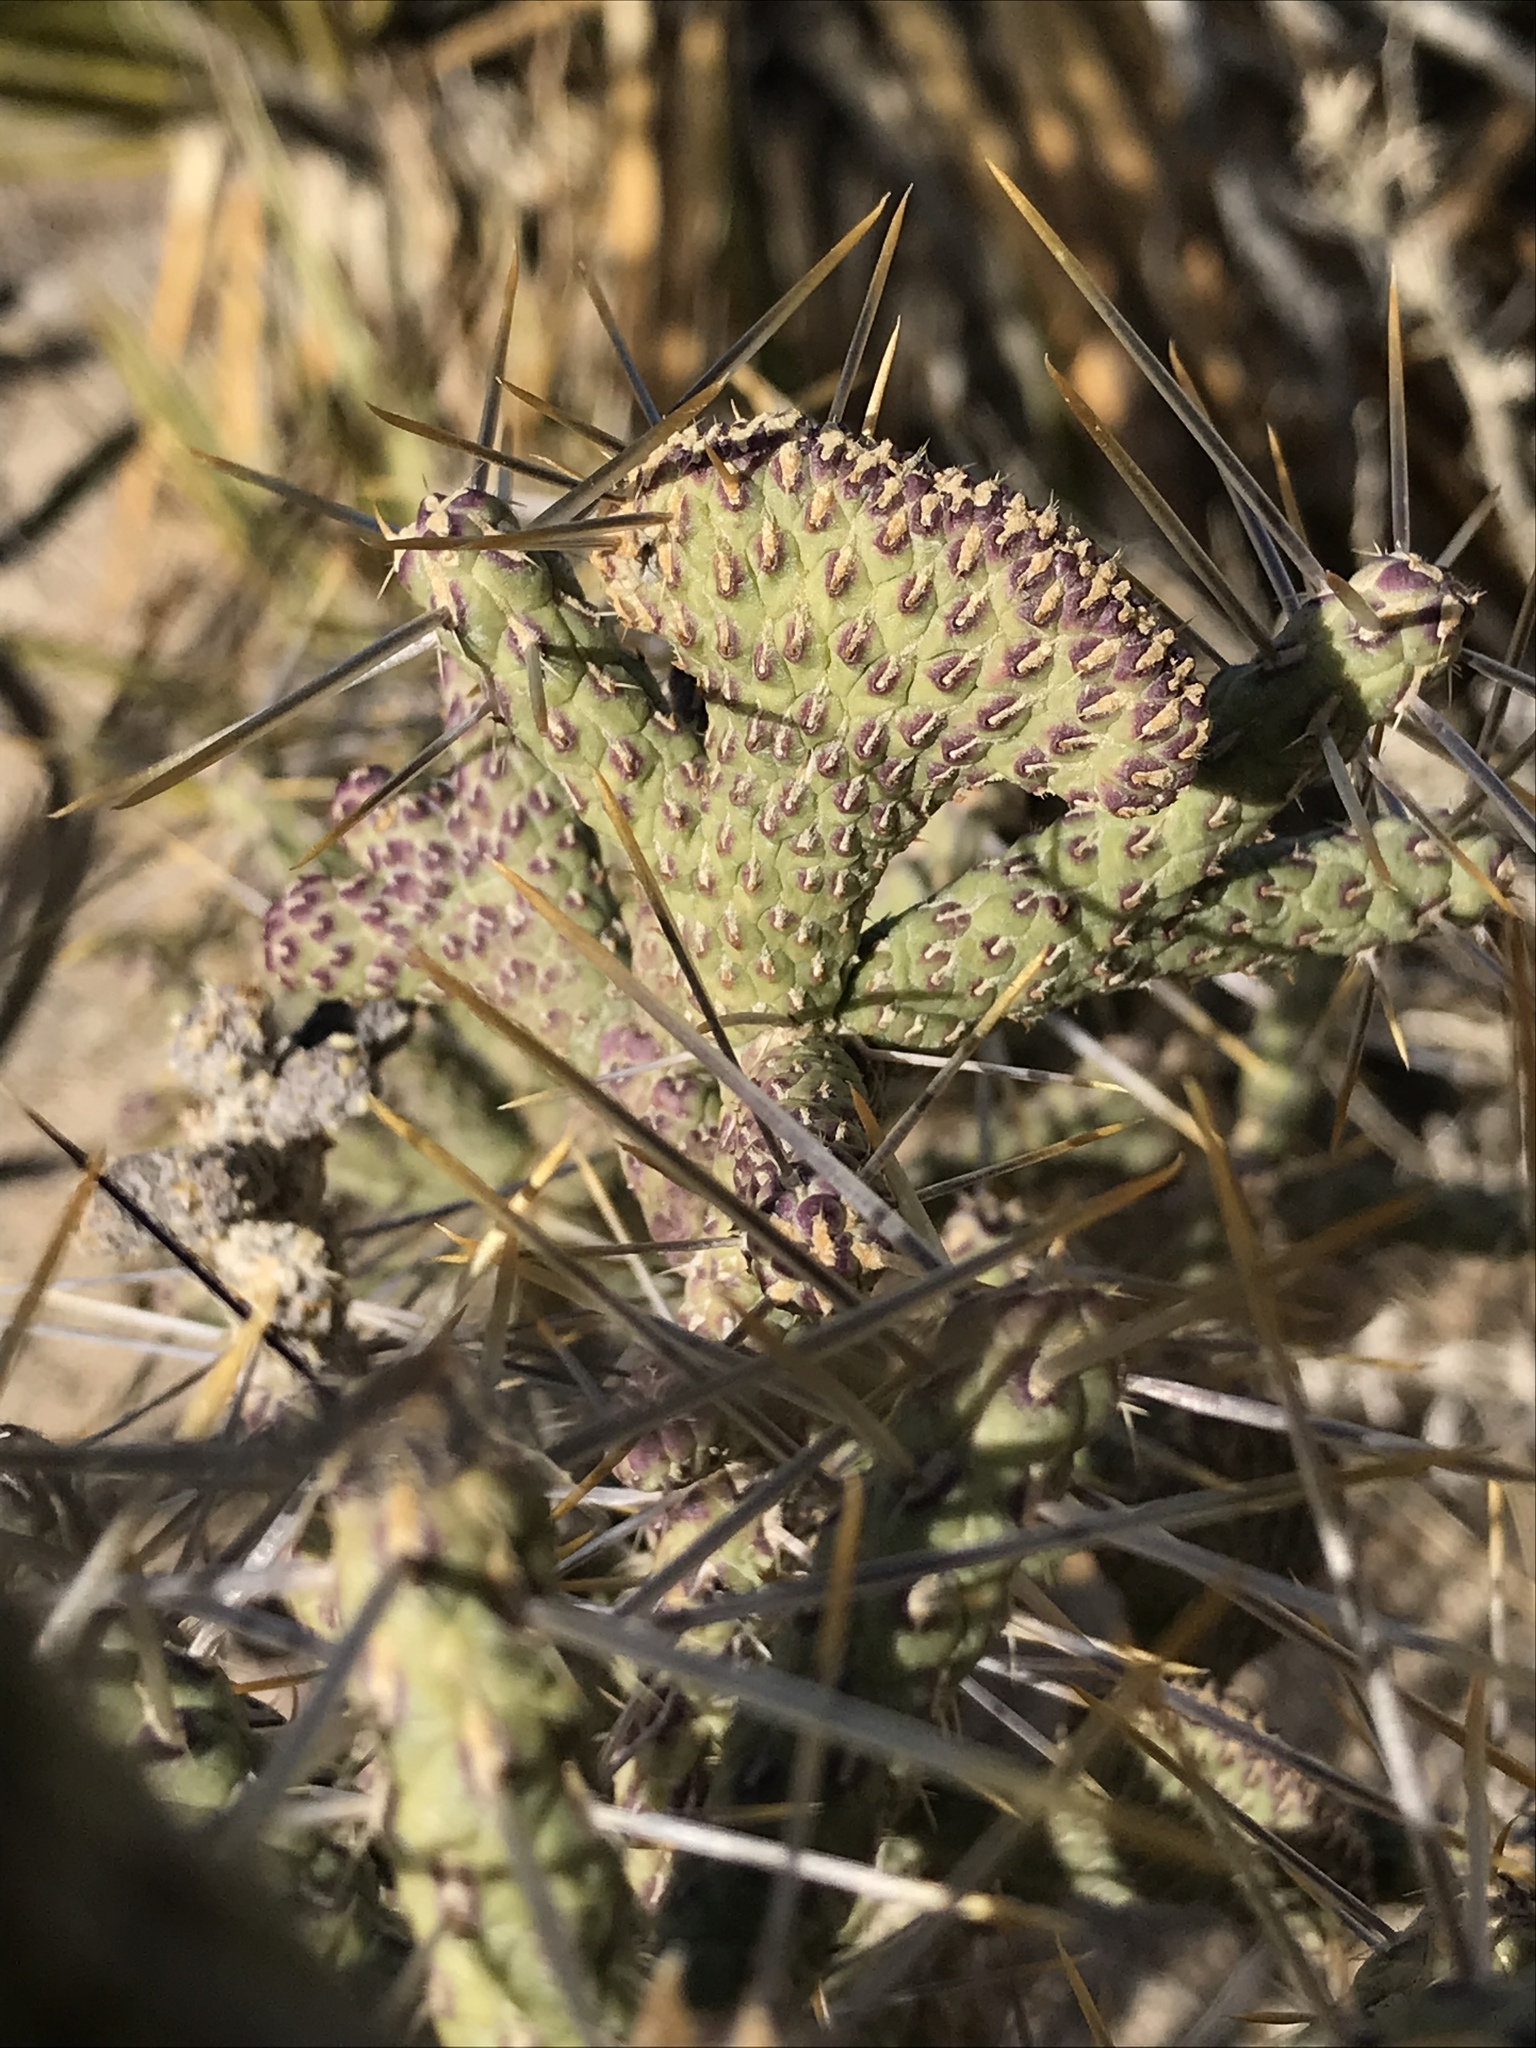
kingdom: Plantae
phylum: Tracheophyta
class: Magnoliopsida
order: Caryophyllales
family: Cactaceae
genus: Cylindropuntia
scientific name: Cylindropuntia ramosissima
